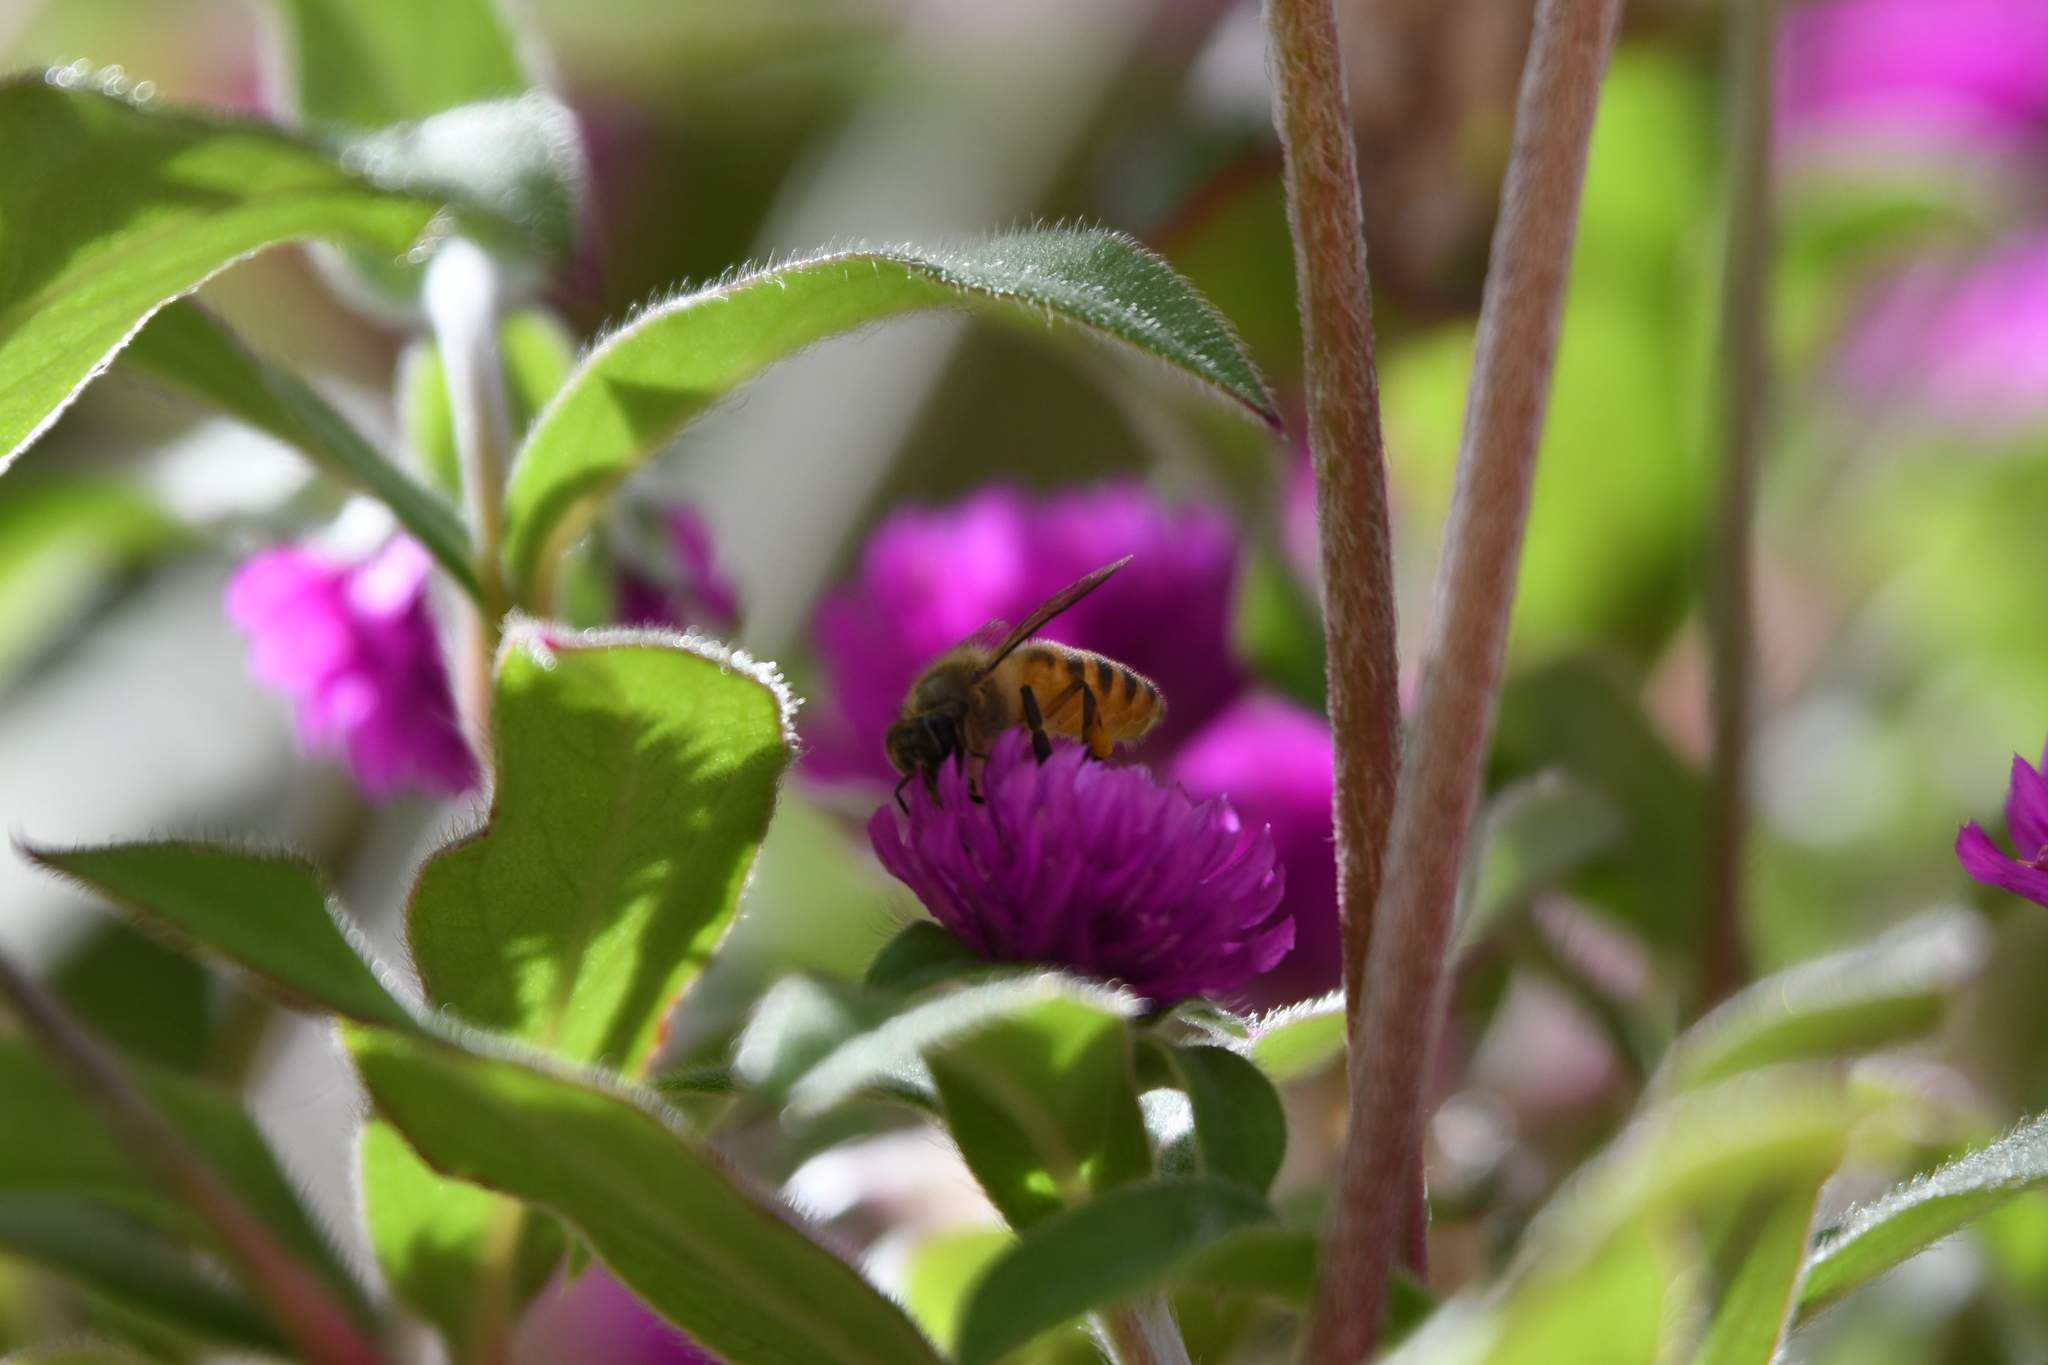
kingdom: Animalia
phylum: Arthropoda
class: Insecta
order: Hymenoptera
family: Apidae
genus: Apis
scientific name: Apis
